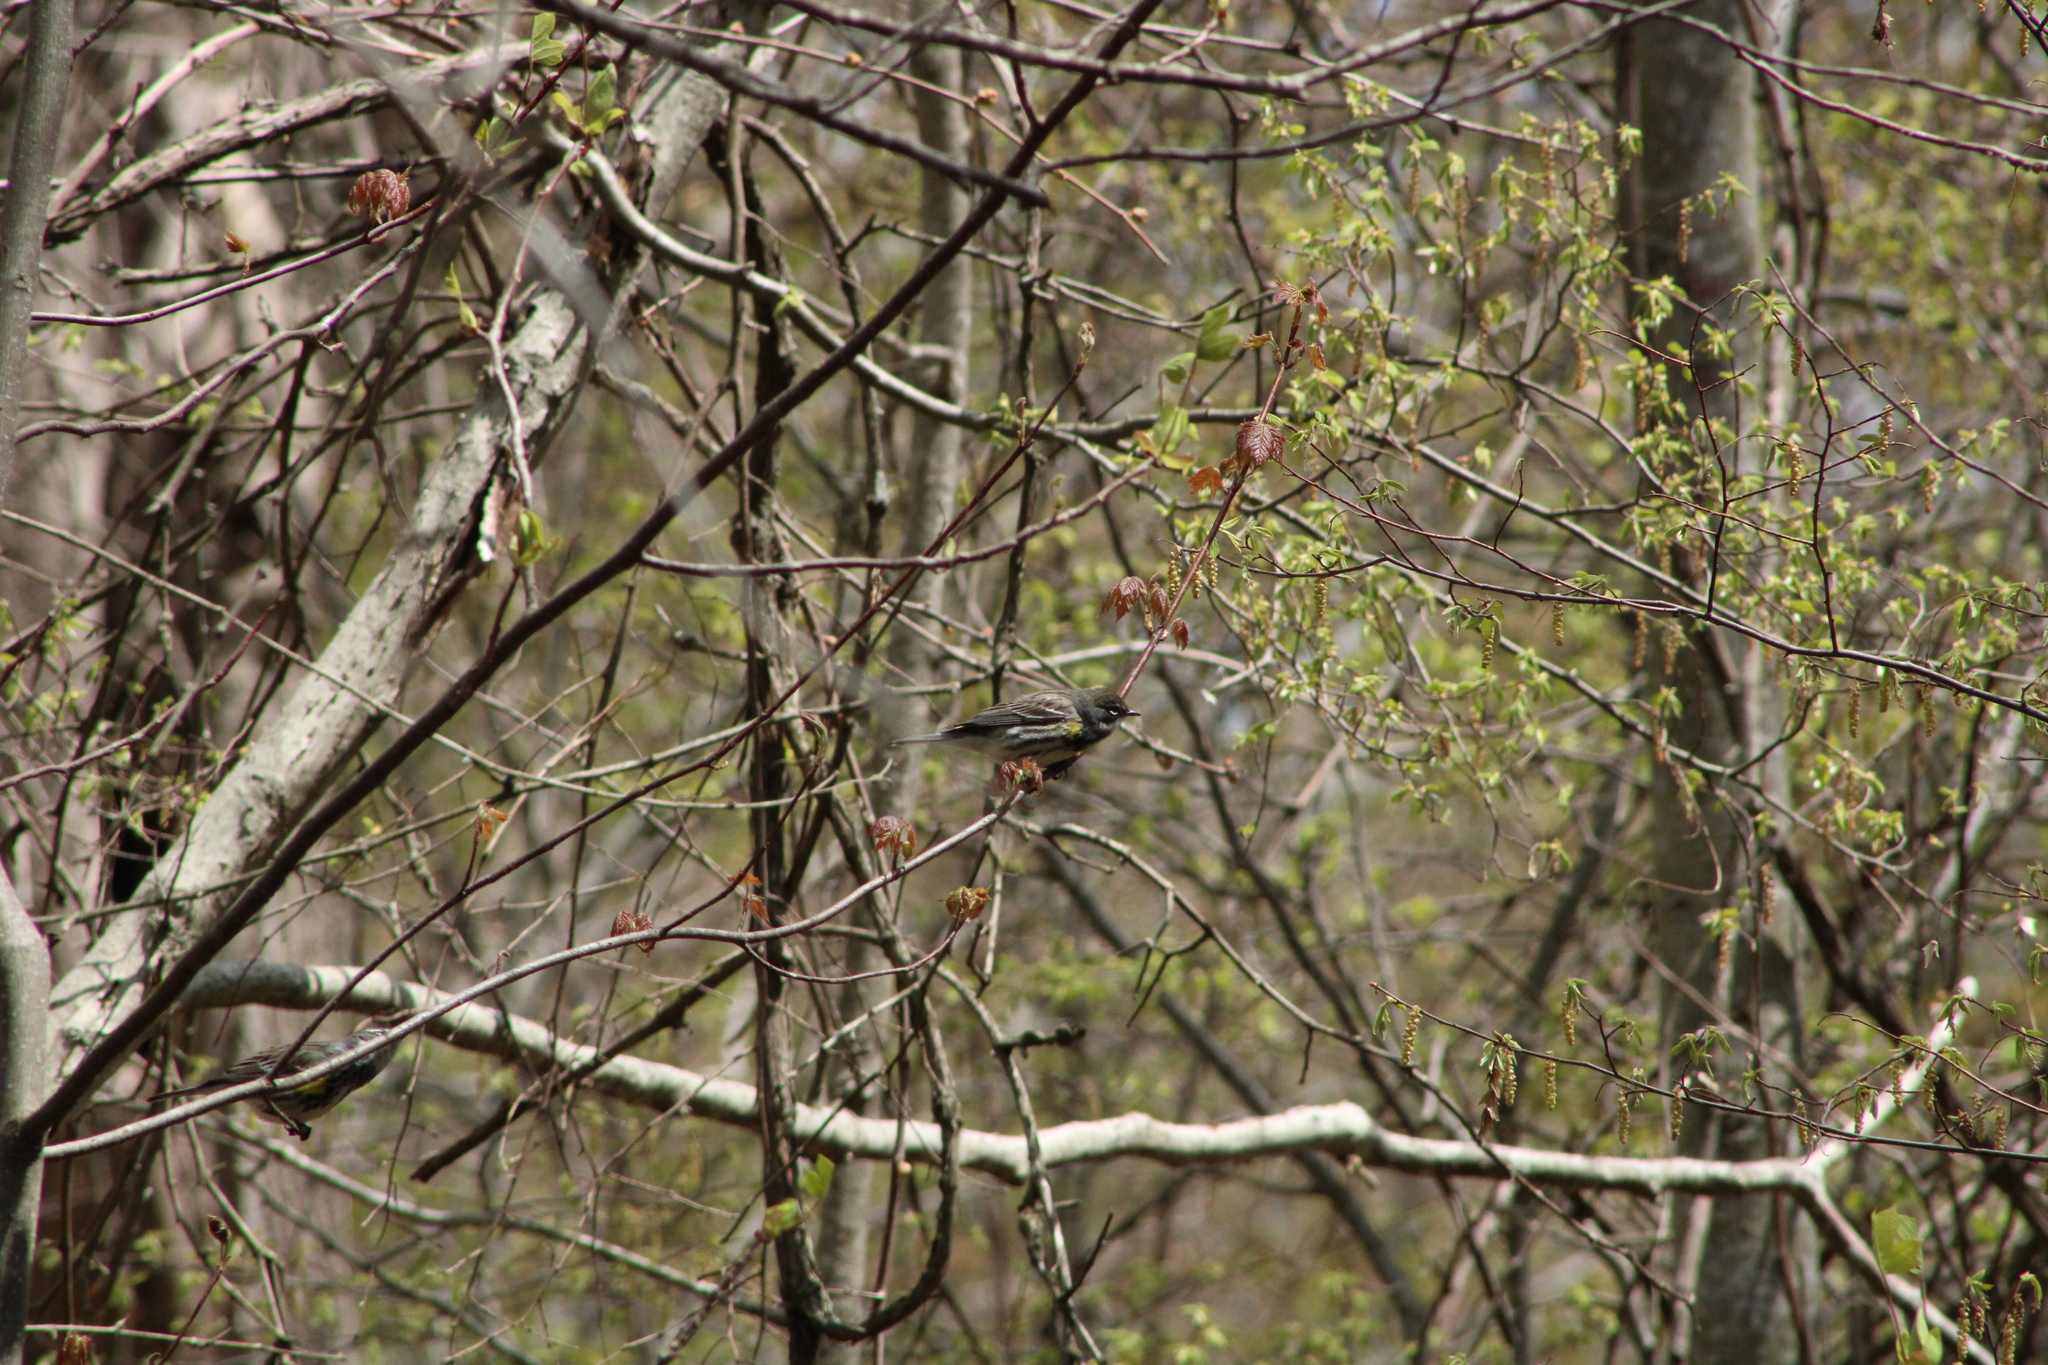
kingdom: Animalia
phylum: Chordata
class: Aves
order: Passeriformes
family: Parulidae
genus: Setophaga
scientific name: Setophaga coronata
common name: Myrtle warbler
